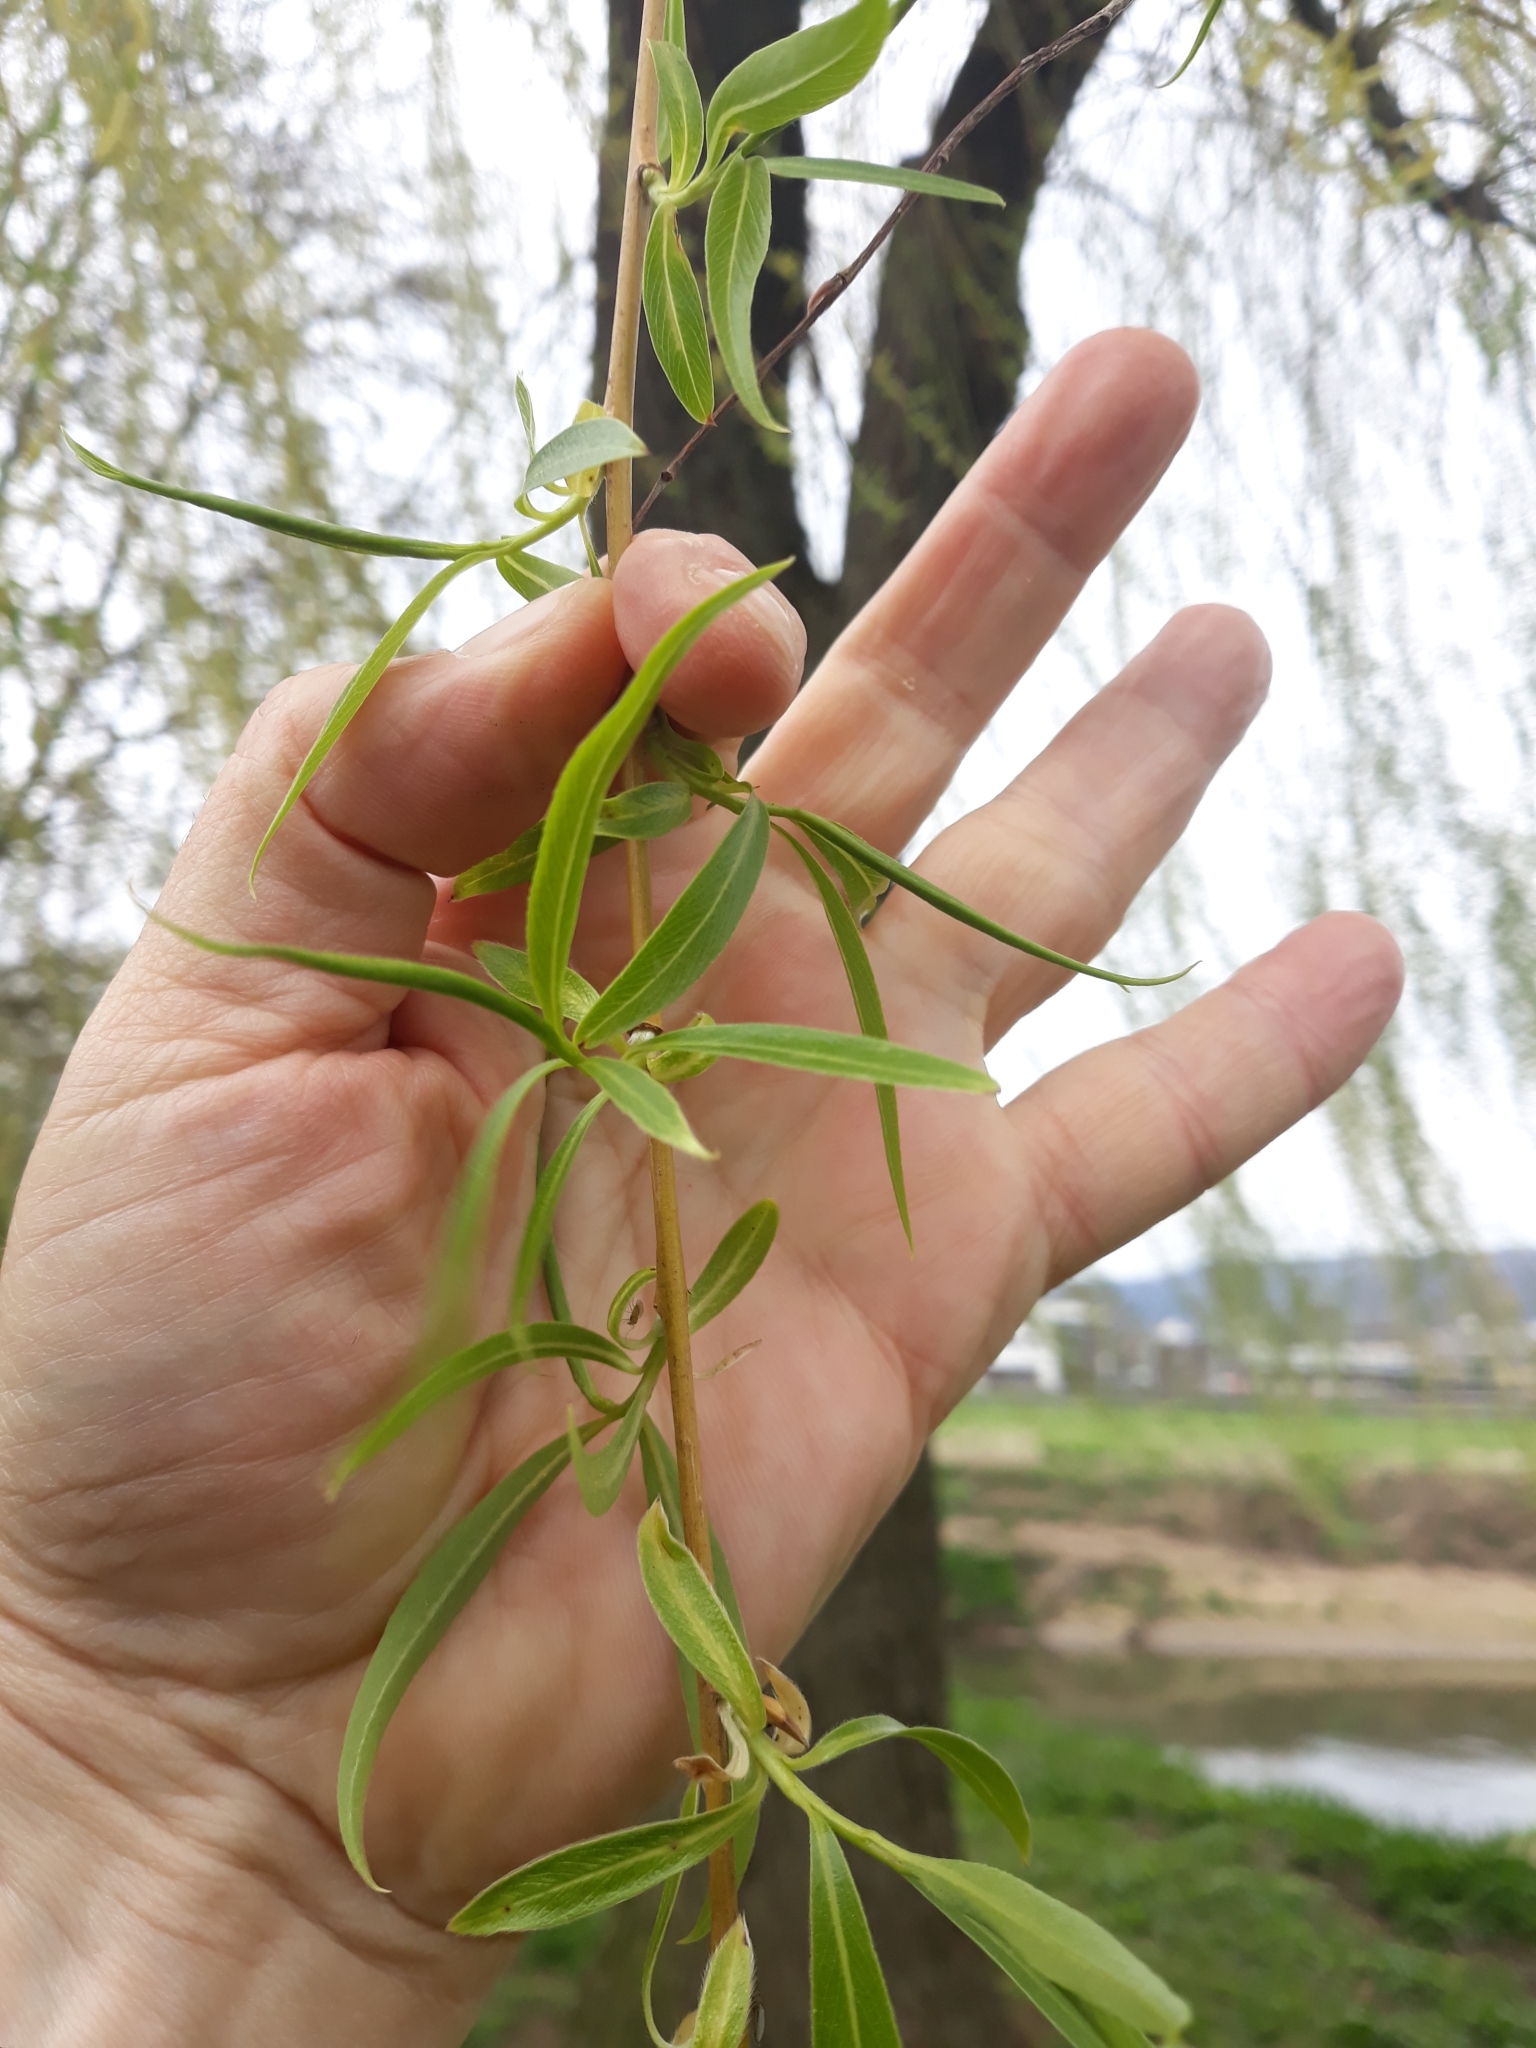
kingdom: Plantae
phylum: Tracheophyta
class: Magnoliopsida
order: Malpighiales
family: Salicaceae
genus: Salix
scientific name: Salix pendulina
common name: Wisconsin weeping willow
